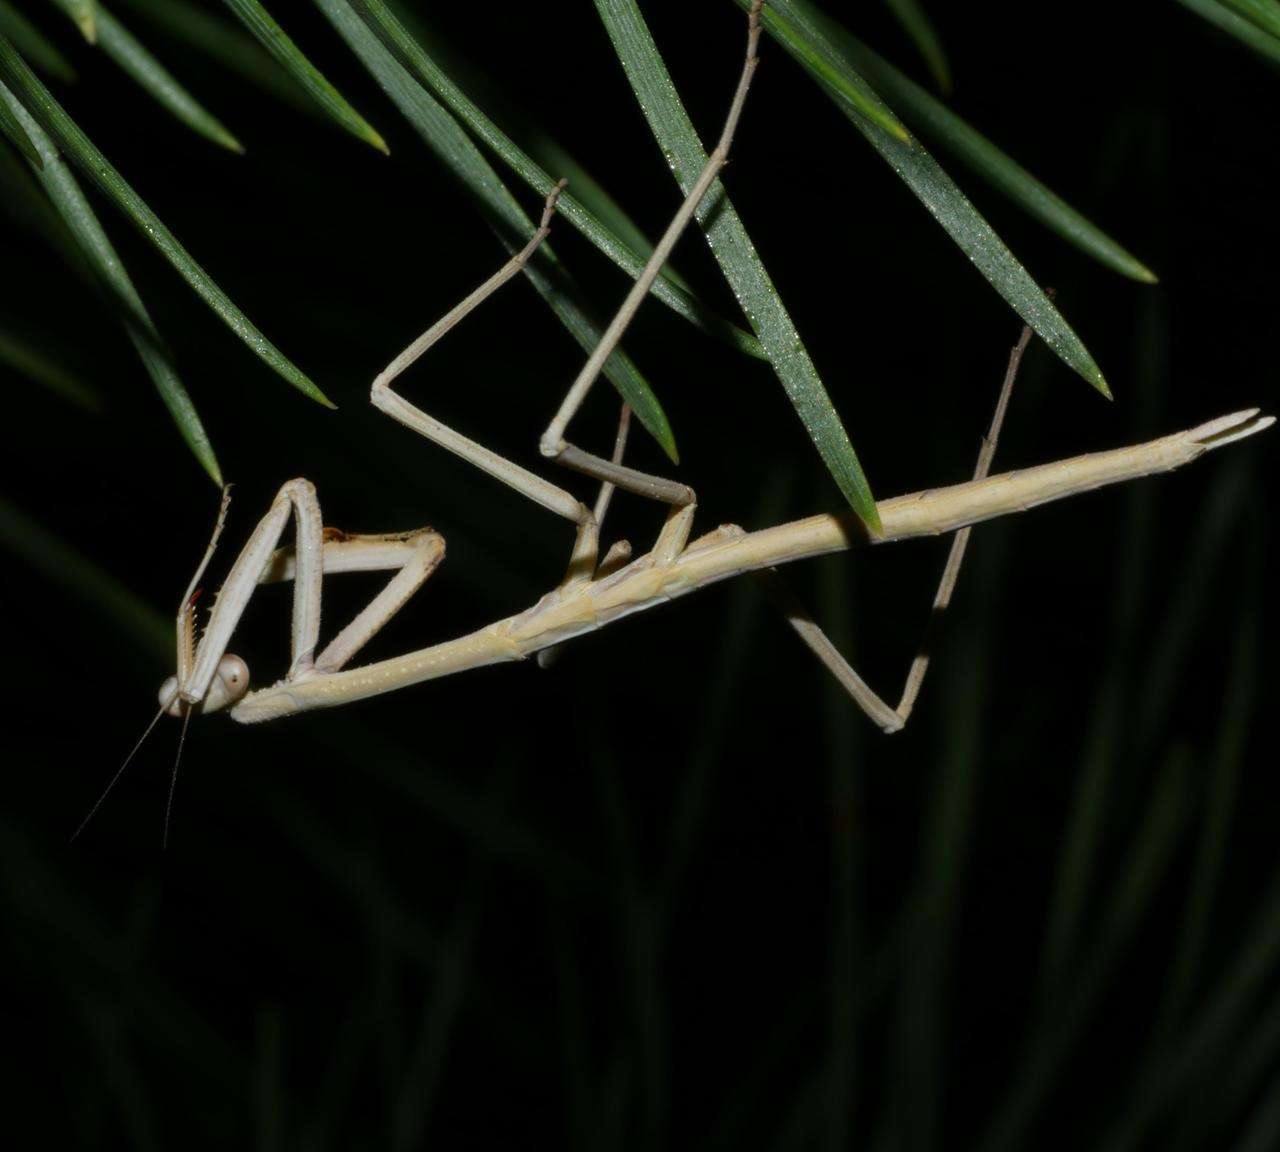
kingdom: Animalia
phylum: Arthropoda
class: Insecta
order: Mantodea
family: Mantidae
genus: Archimantis
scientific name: Archimantis sobrina
